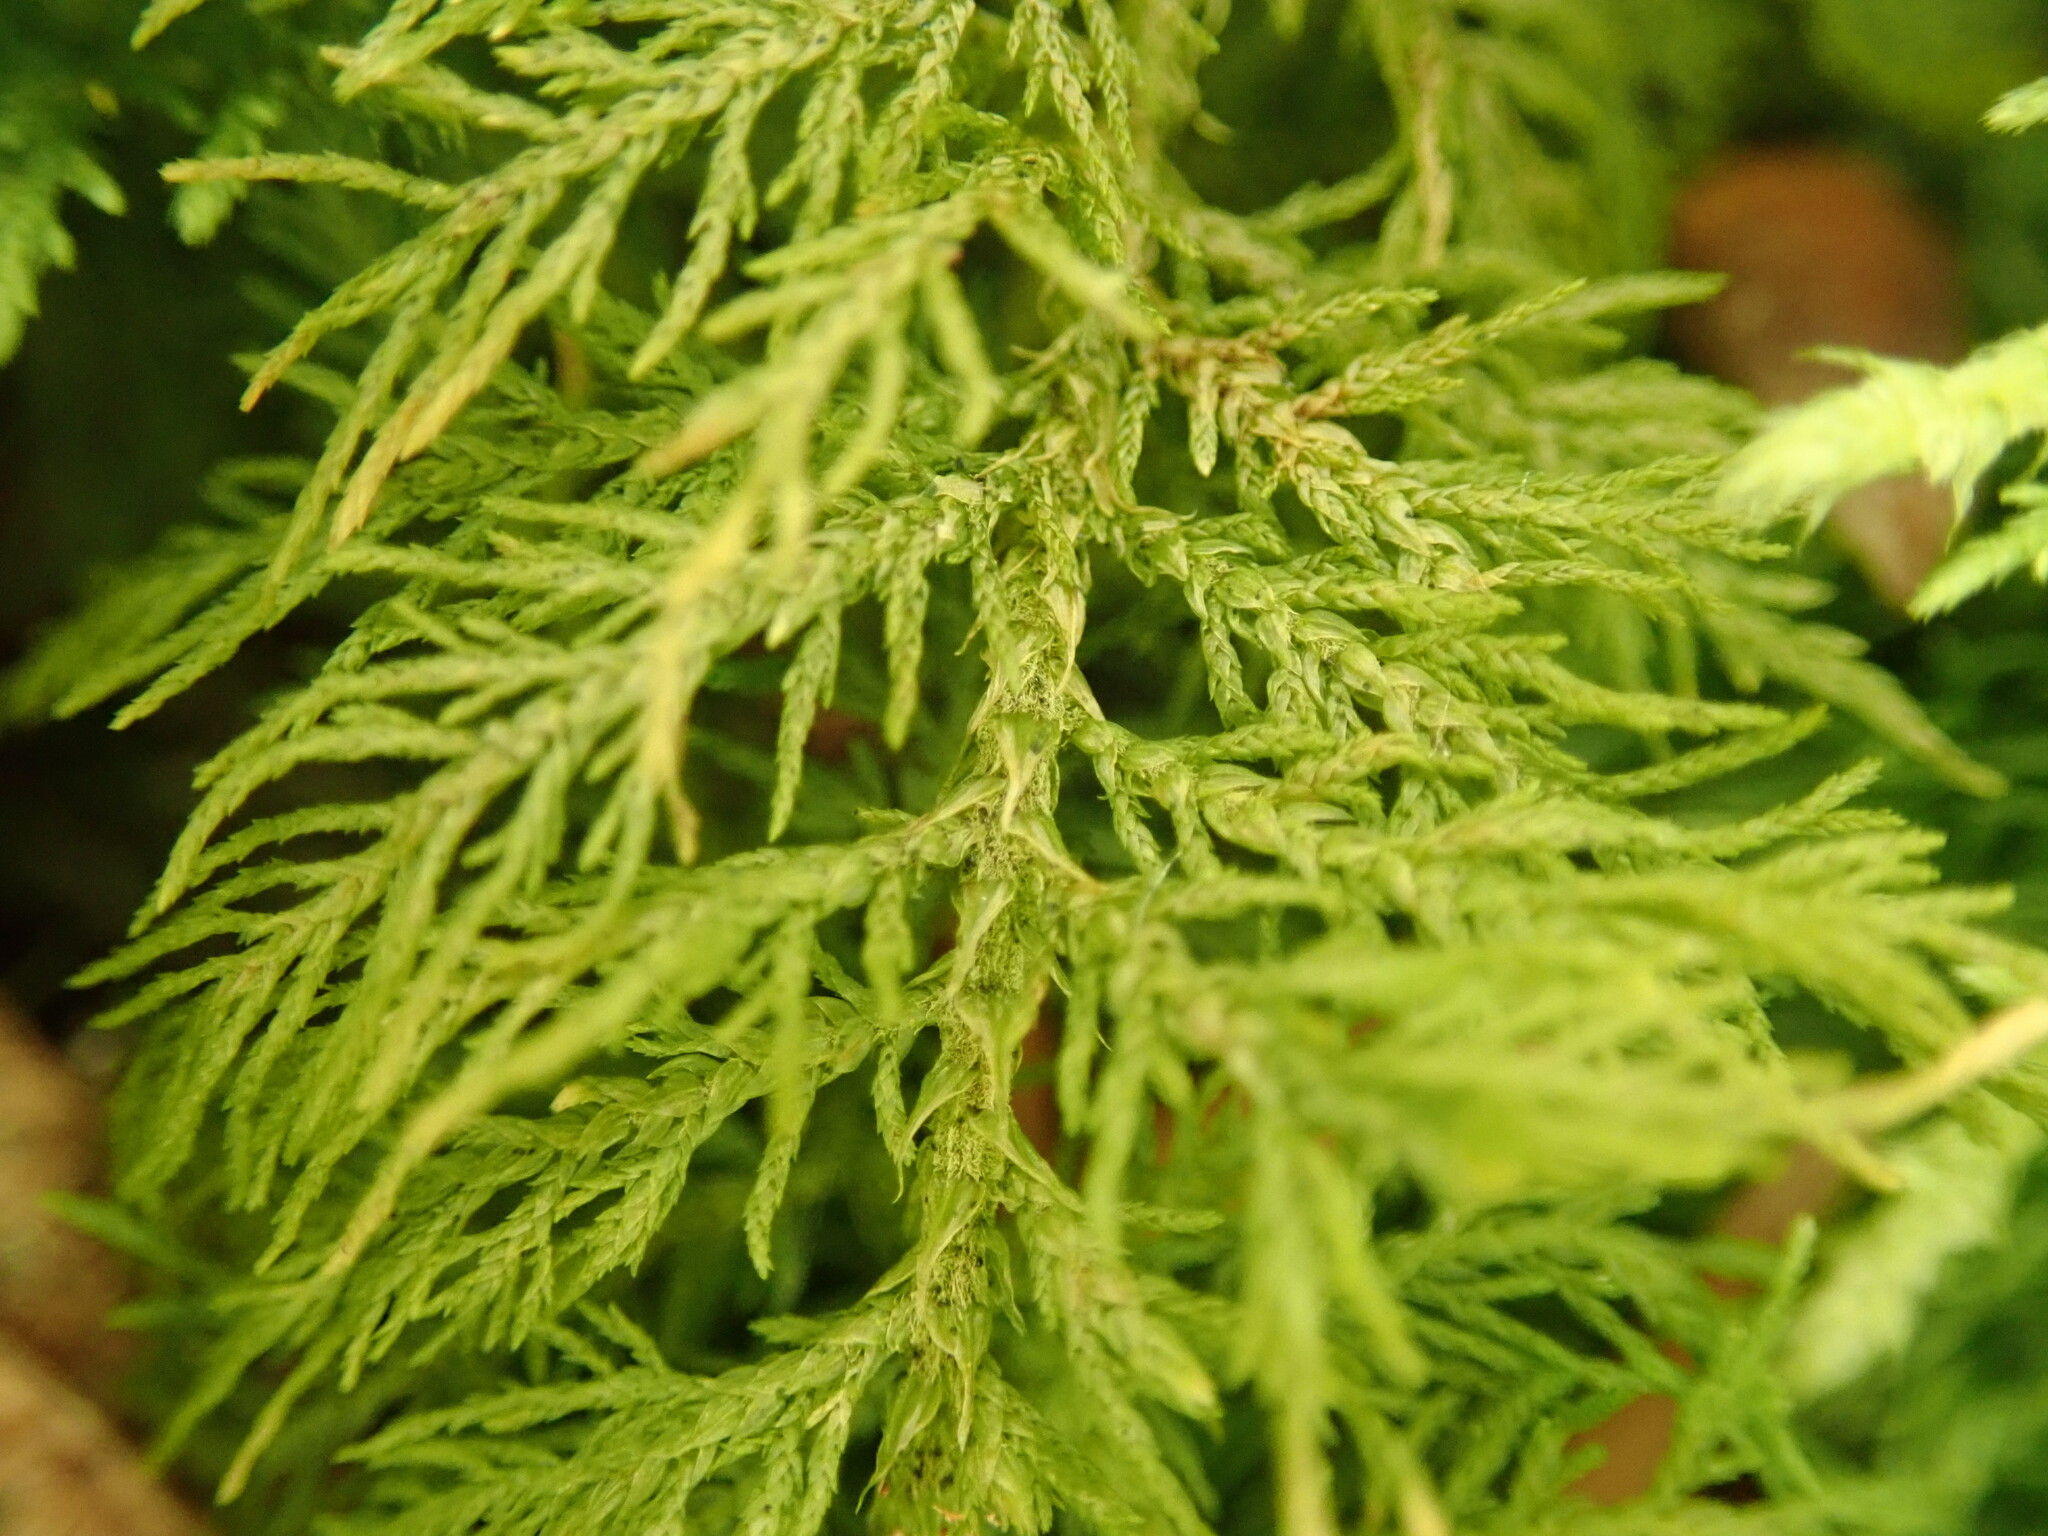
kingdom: Plantae
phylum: Bryophyta
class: Bryopsida
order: Hypnales
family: Thuidiaceae
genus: Thuidium
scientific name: Thuidium tamariscinum
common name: Common tamarisk-moss
